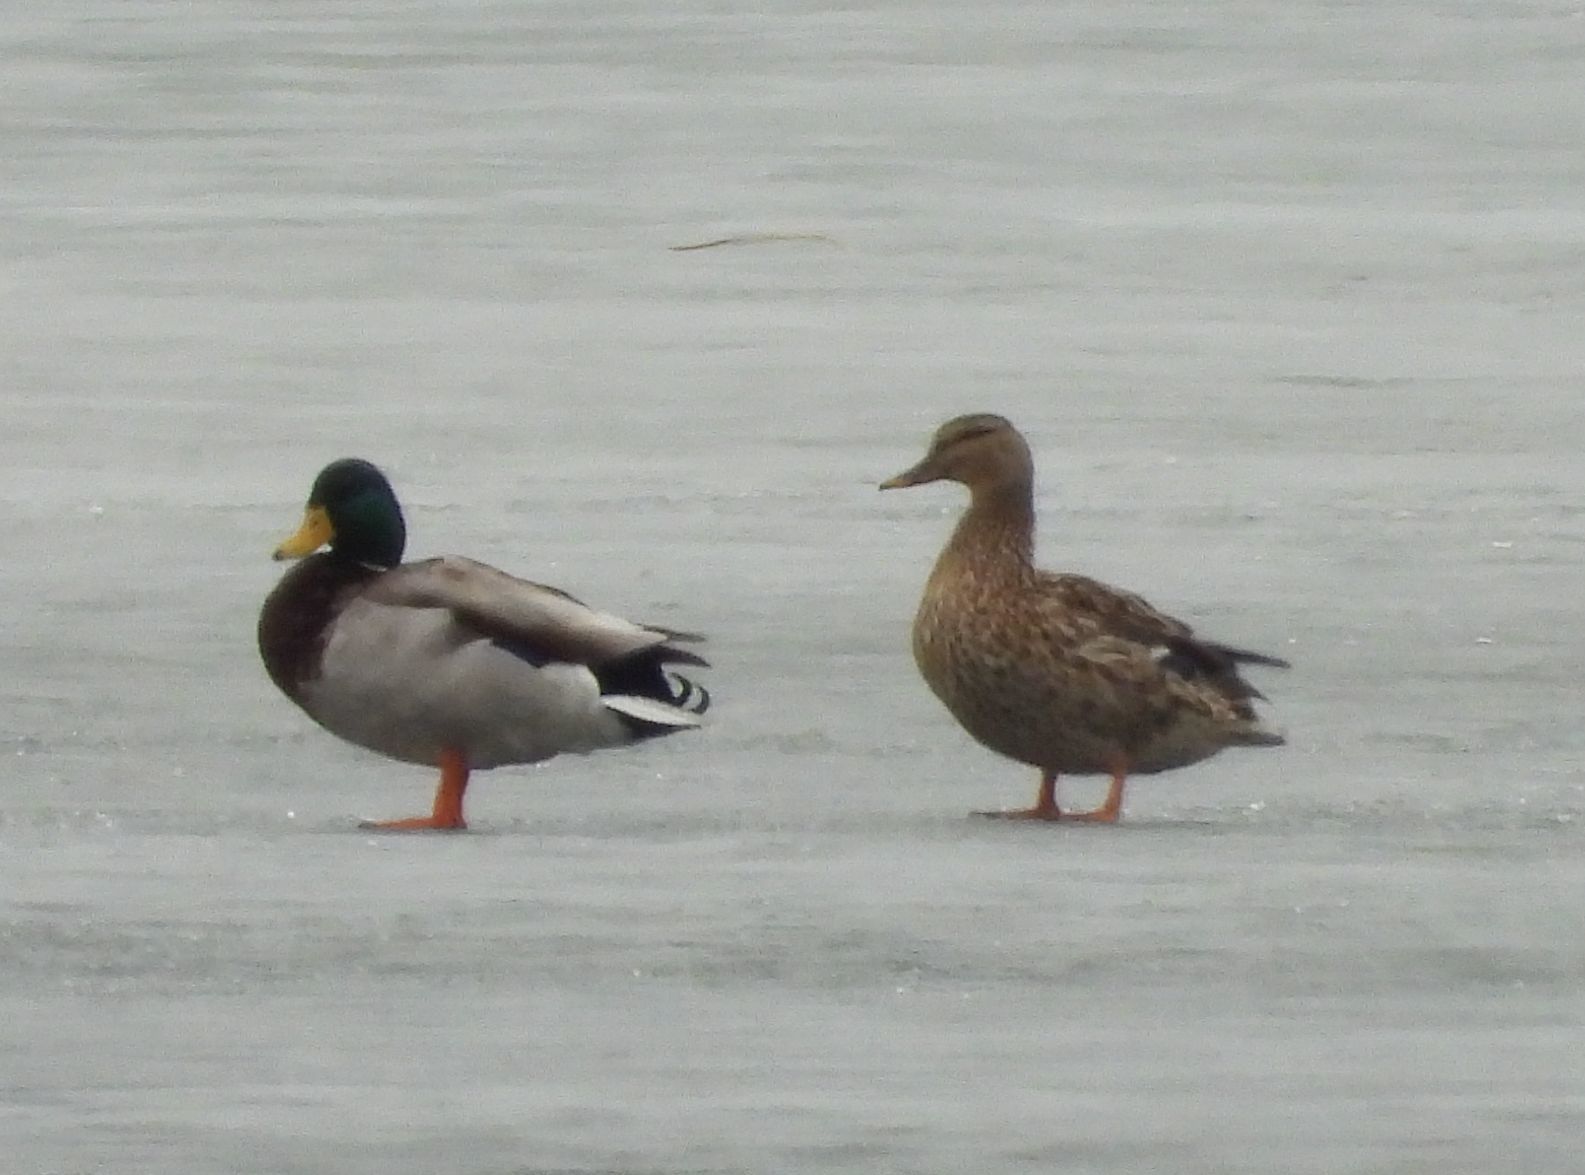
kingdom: Animalia
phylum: Chordata
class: Aves
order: Anseriformes
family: Anatidae
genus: Anas
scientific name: Anas platyrhynchos
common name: Mallard
